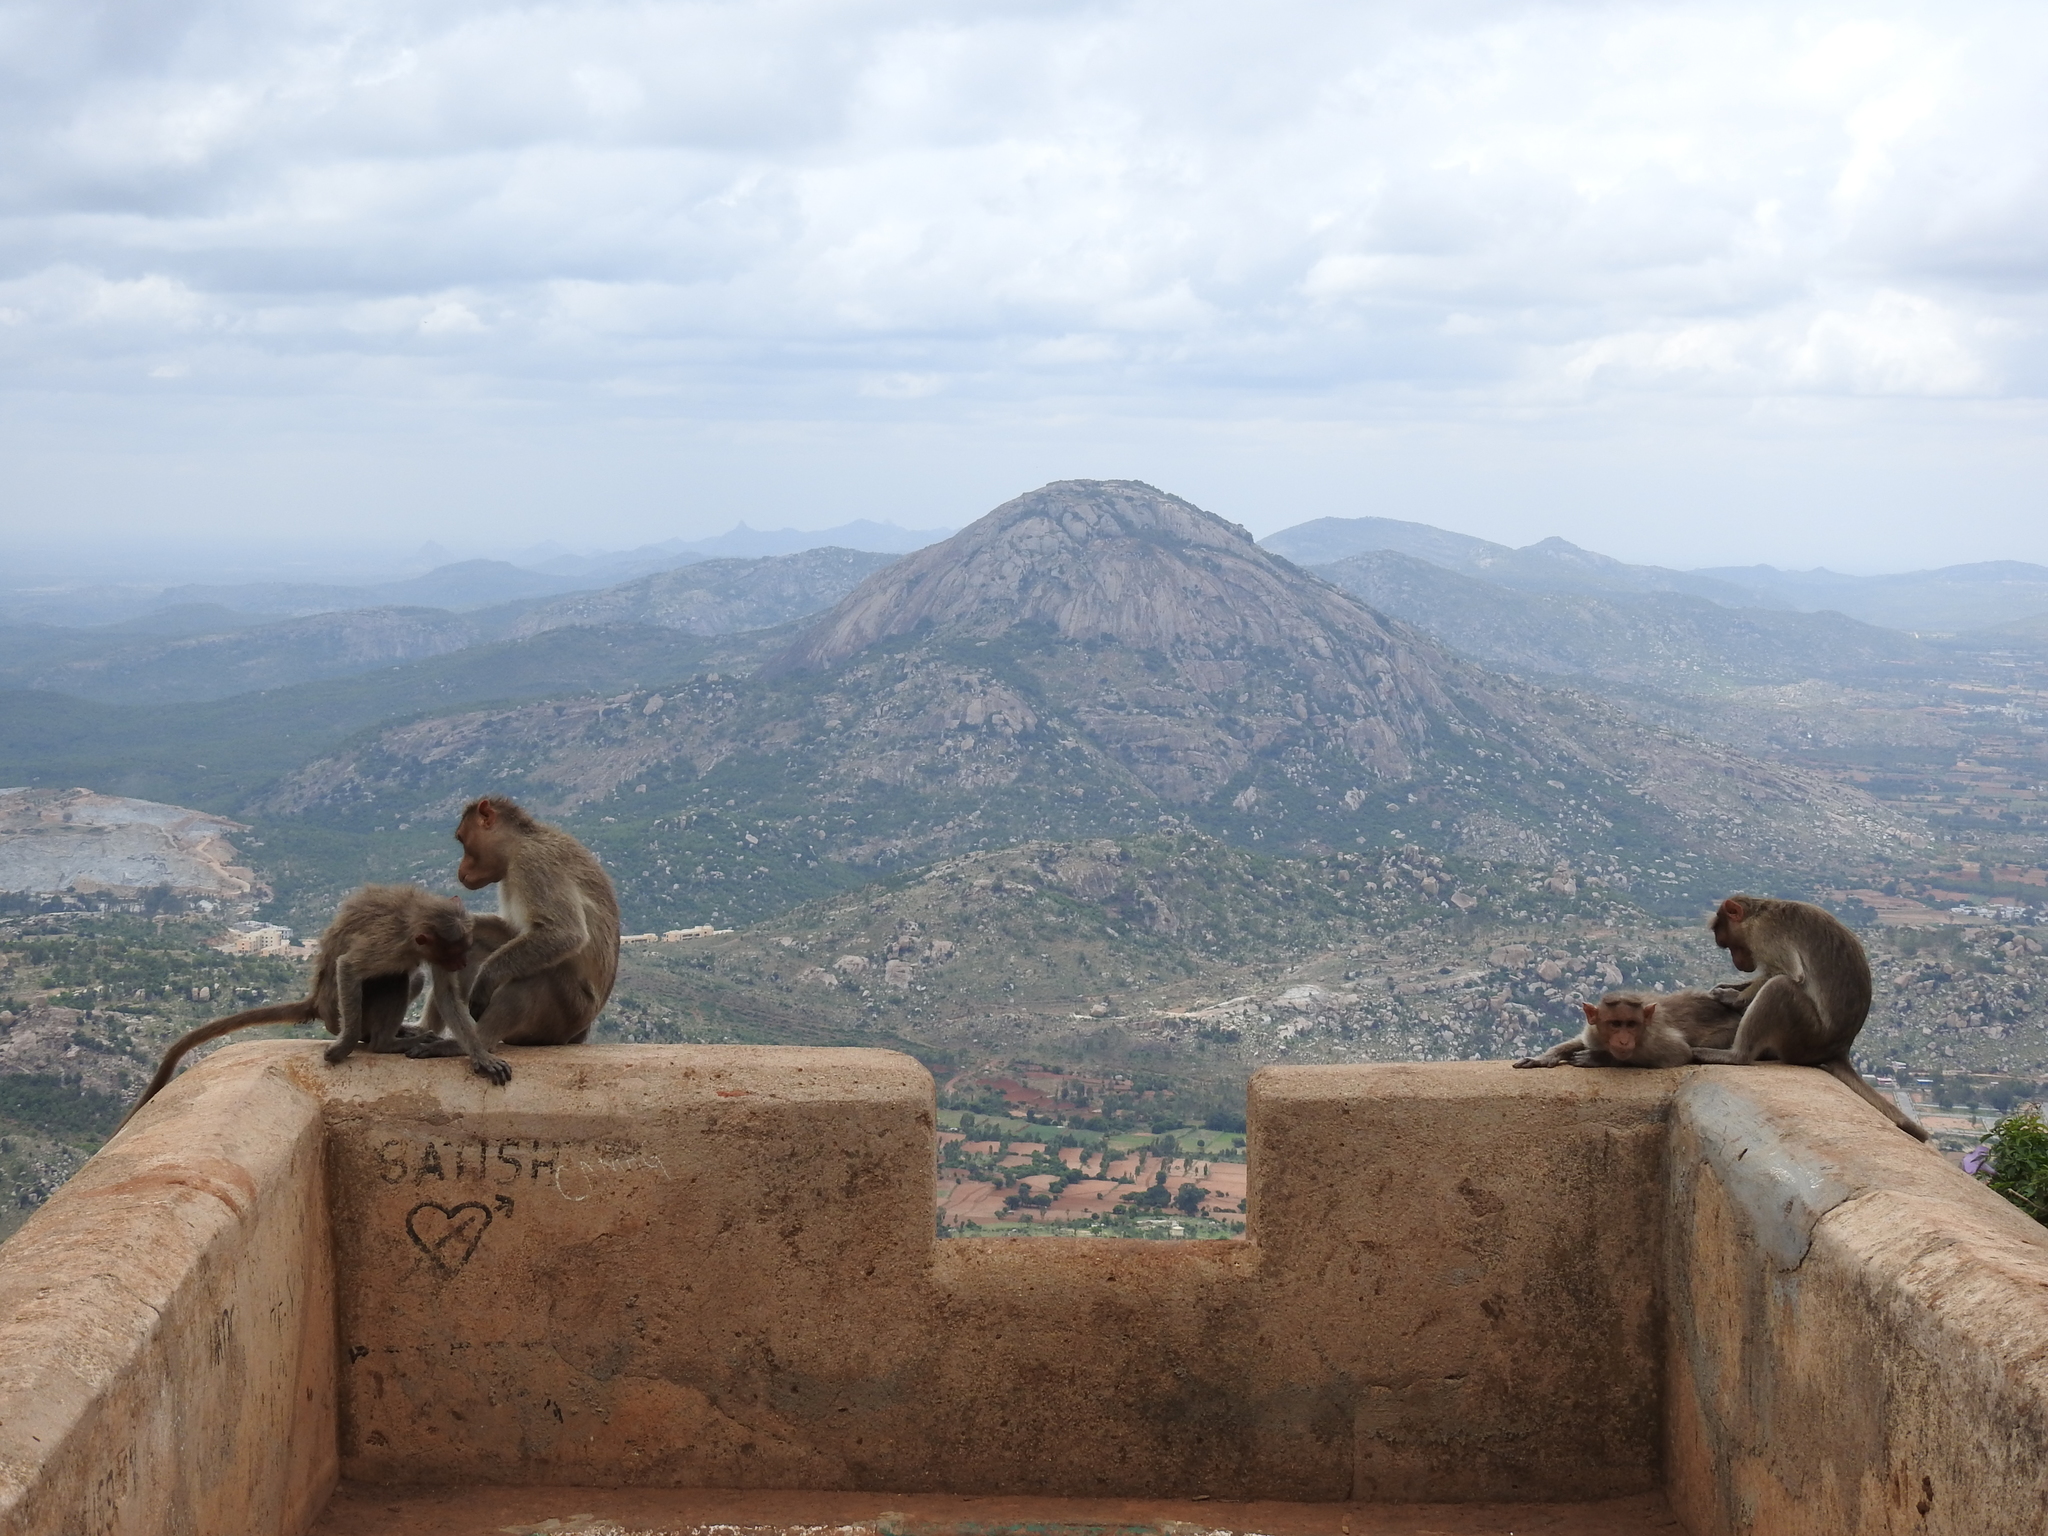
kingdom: Animalia
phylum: Chordata
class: Mammalia
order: Primates
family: Cercopithecidae
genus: Macaca
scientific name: Macaca radiata
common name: Bonnet macaque
